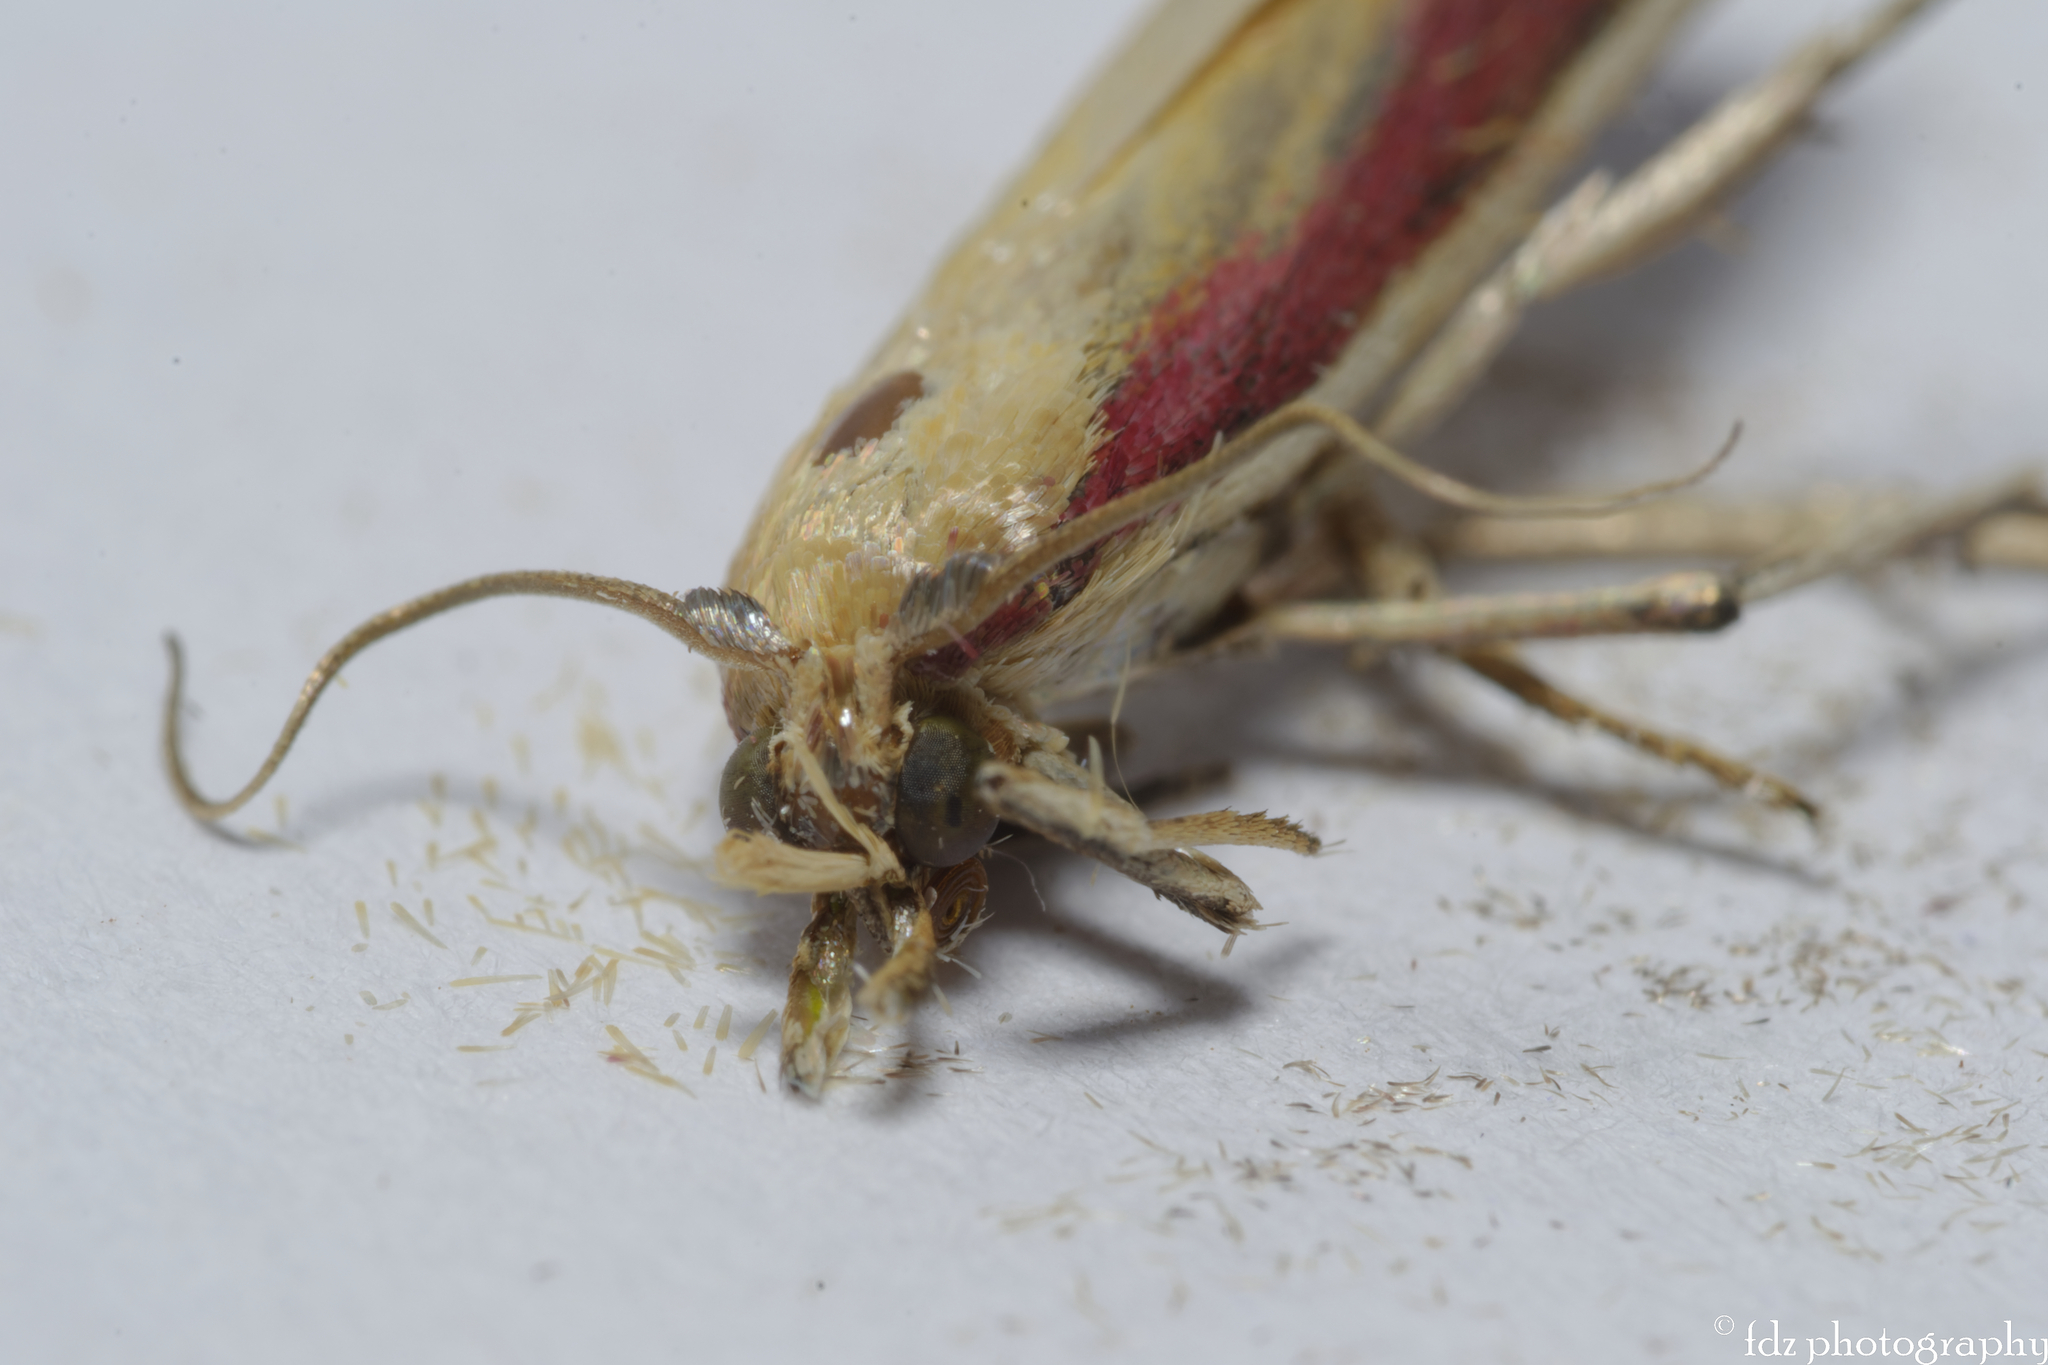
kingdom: Animalia
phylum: Arthropoda
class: Insecta
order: Lepidoptera
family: Pyralidae
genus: Oncocera
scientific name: Oncocera semirubella
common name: Rosy-striped knot-horn
